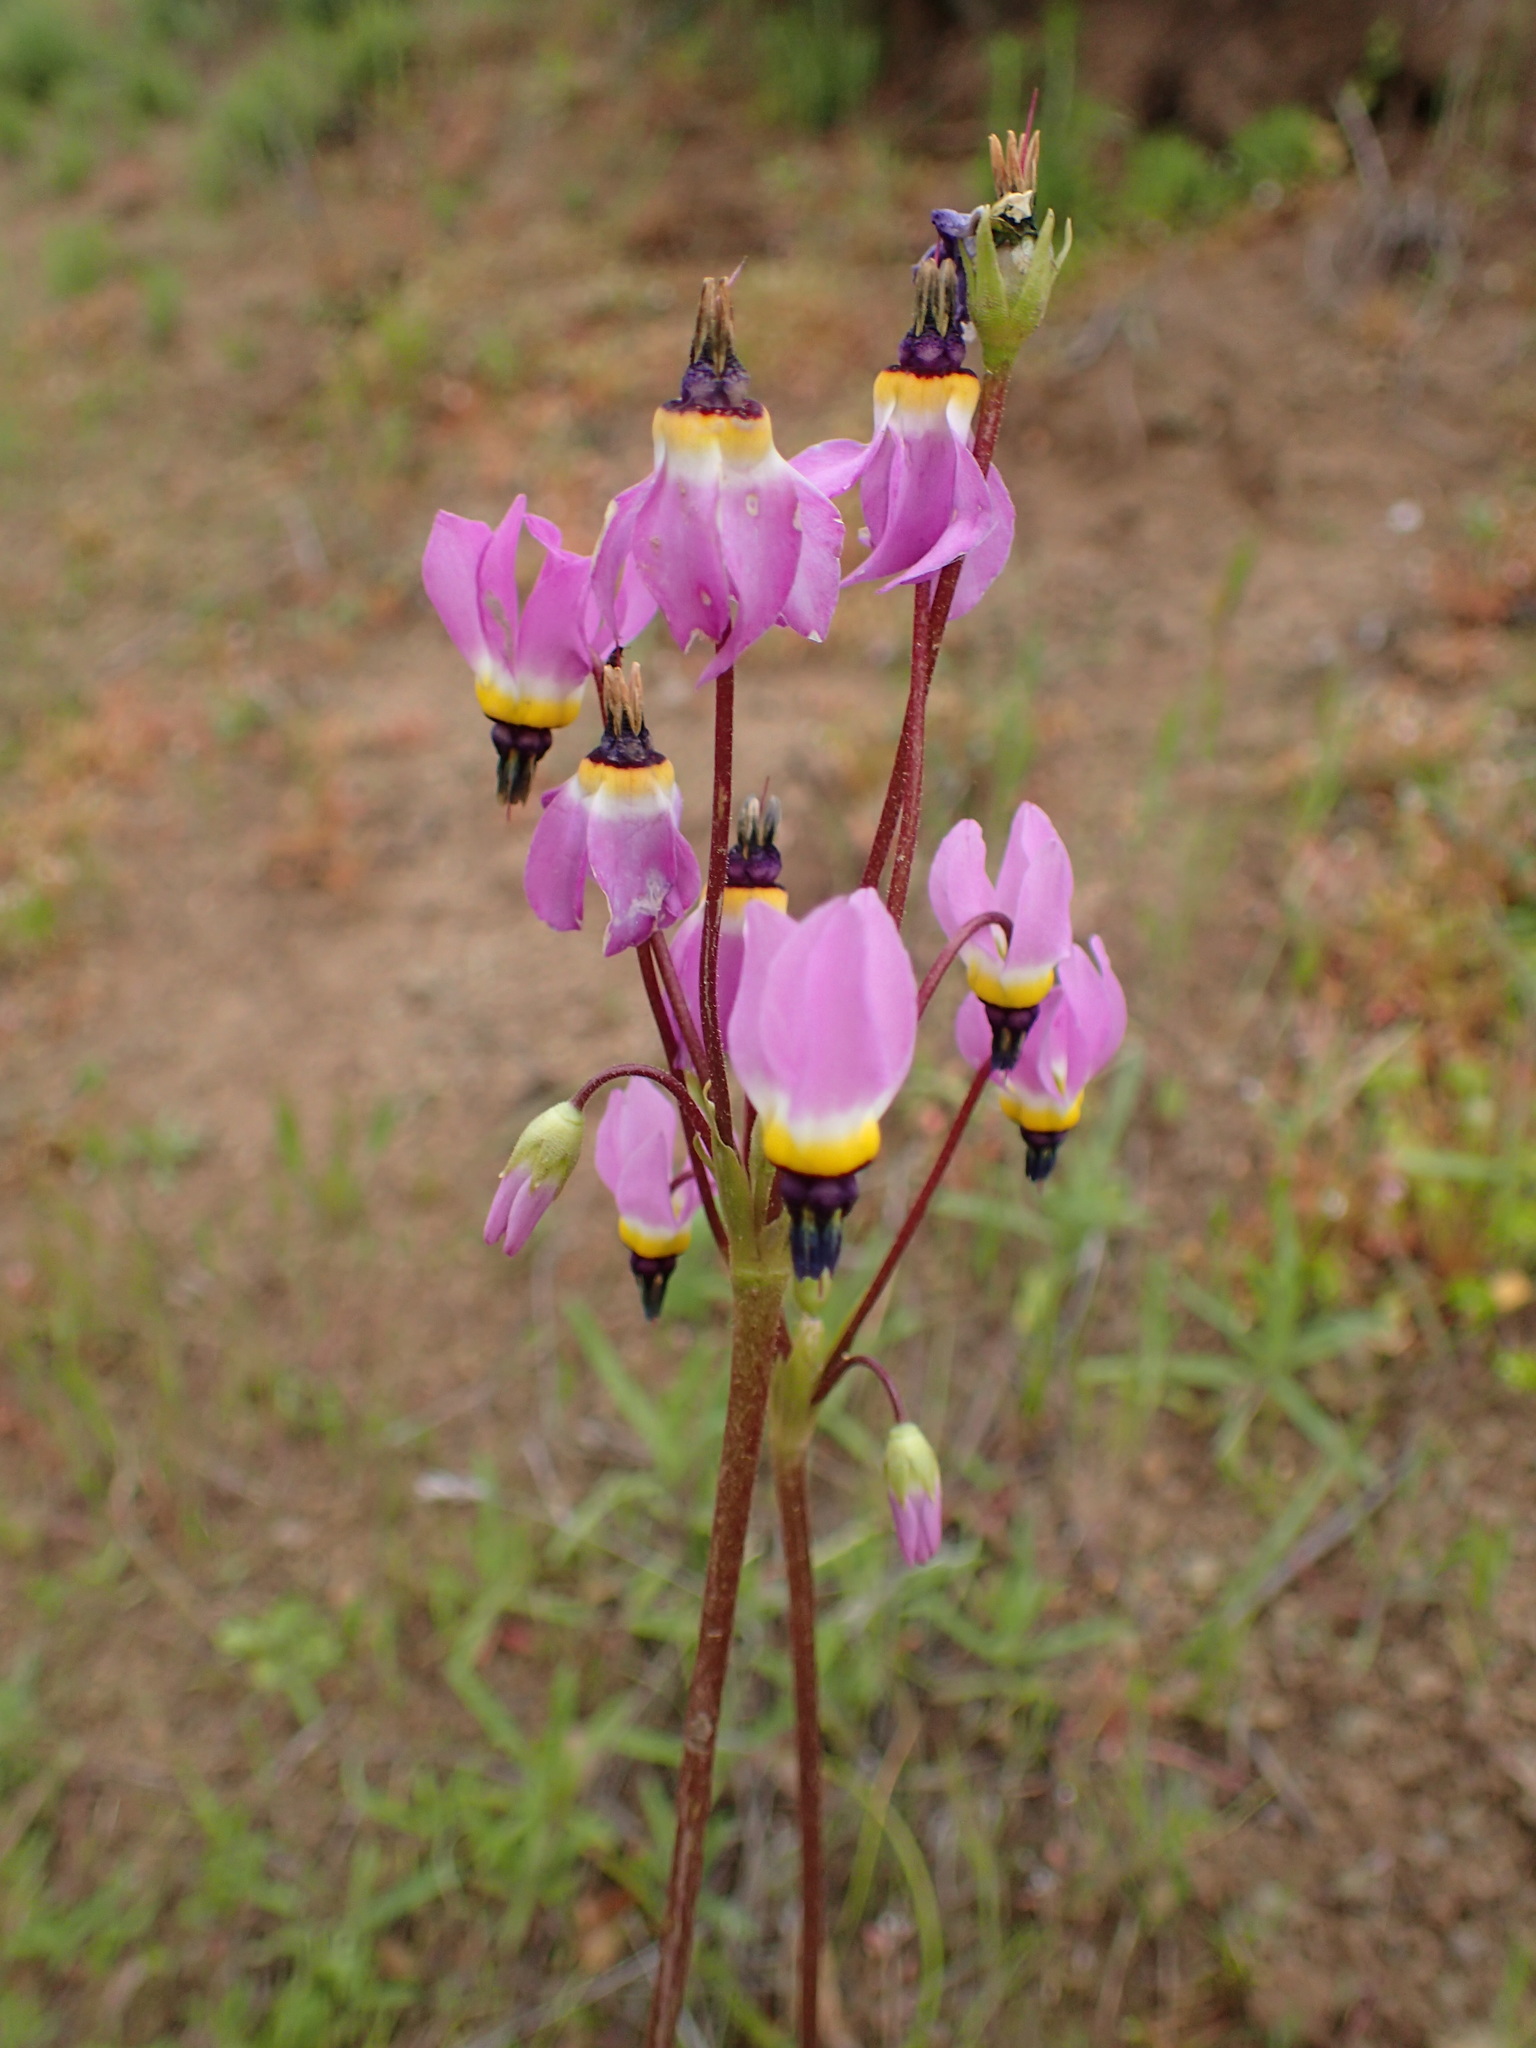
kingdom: Plantae
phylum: Tracheophyta
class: Magnoliopsida
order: Ericales
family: Primulaceae
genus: Dodecatheon
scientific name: Dodecatheon clevelandii
